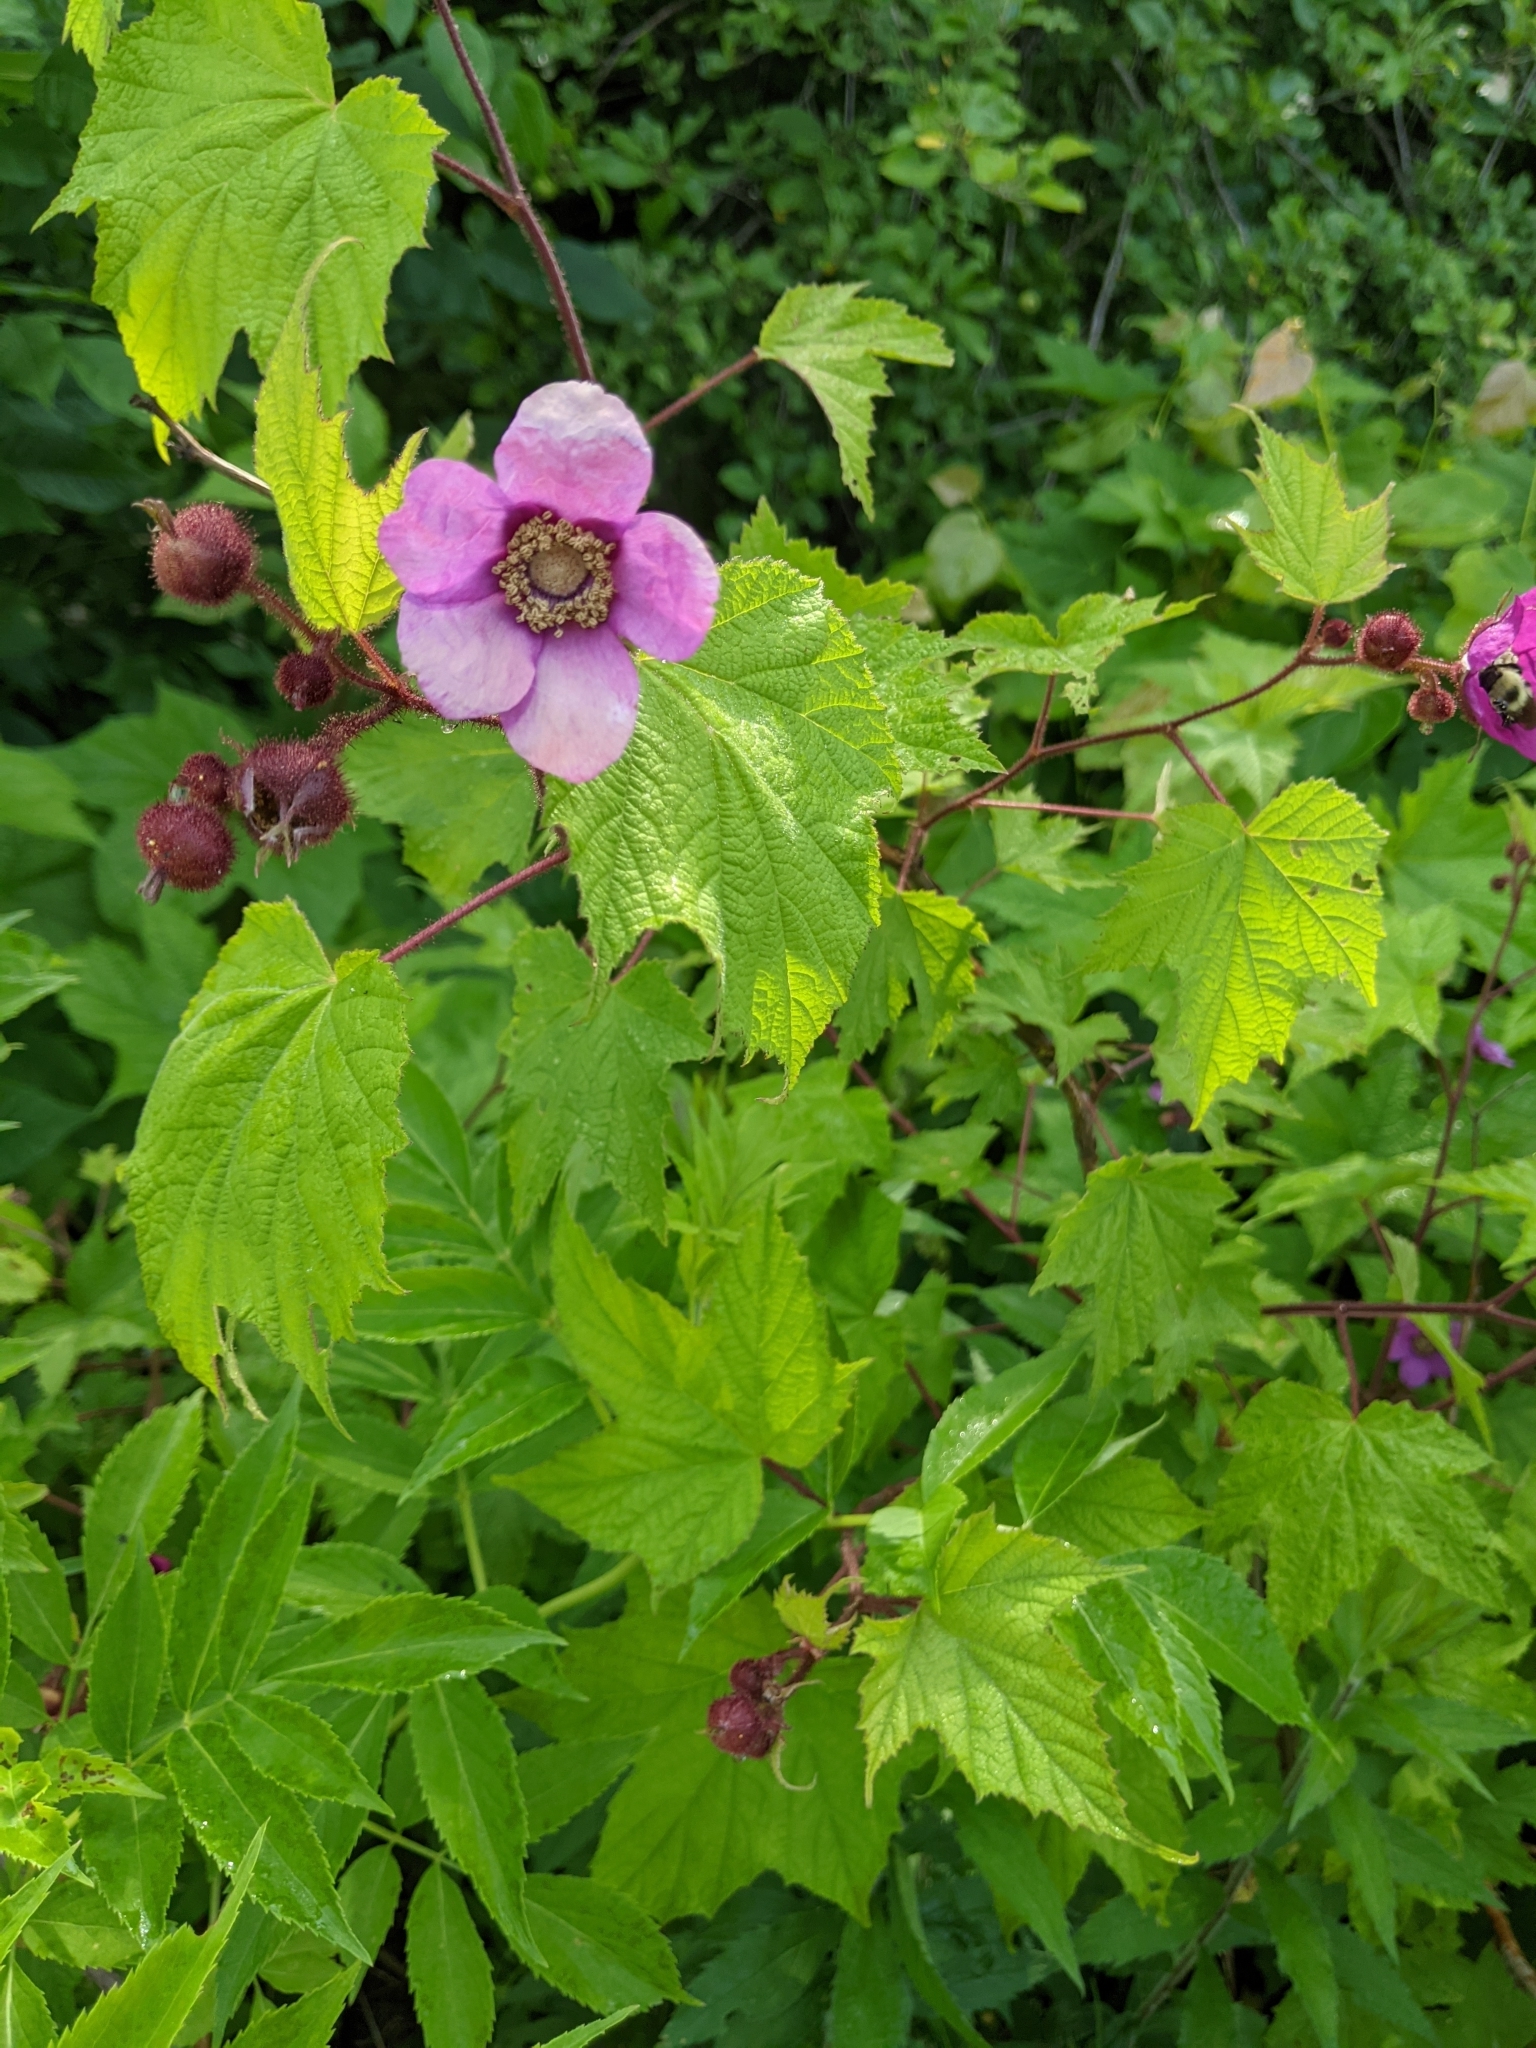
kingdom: Plantae
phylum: Tracheophyta
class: Magnoliopsida
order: Rosales
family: Rosaceae
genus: Rubus
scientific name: Rubus odoratus
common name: Purple-flowered raspberry
